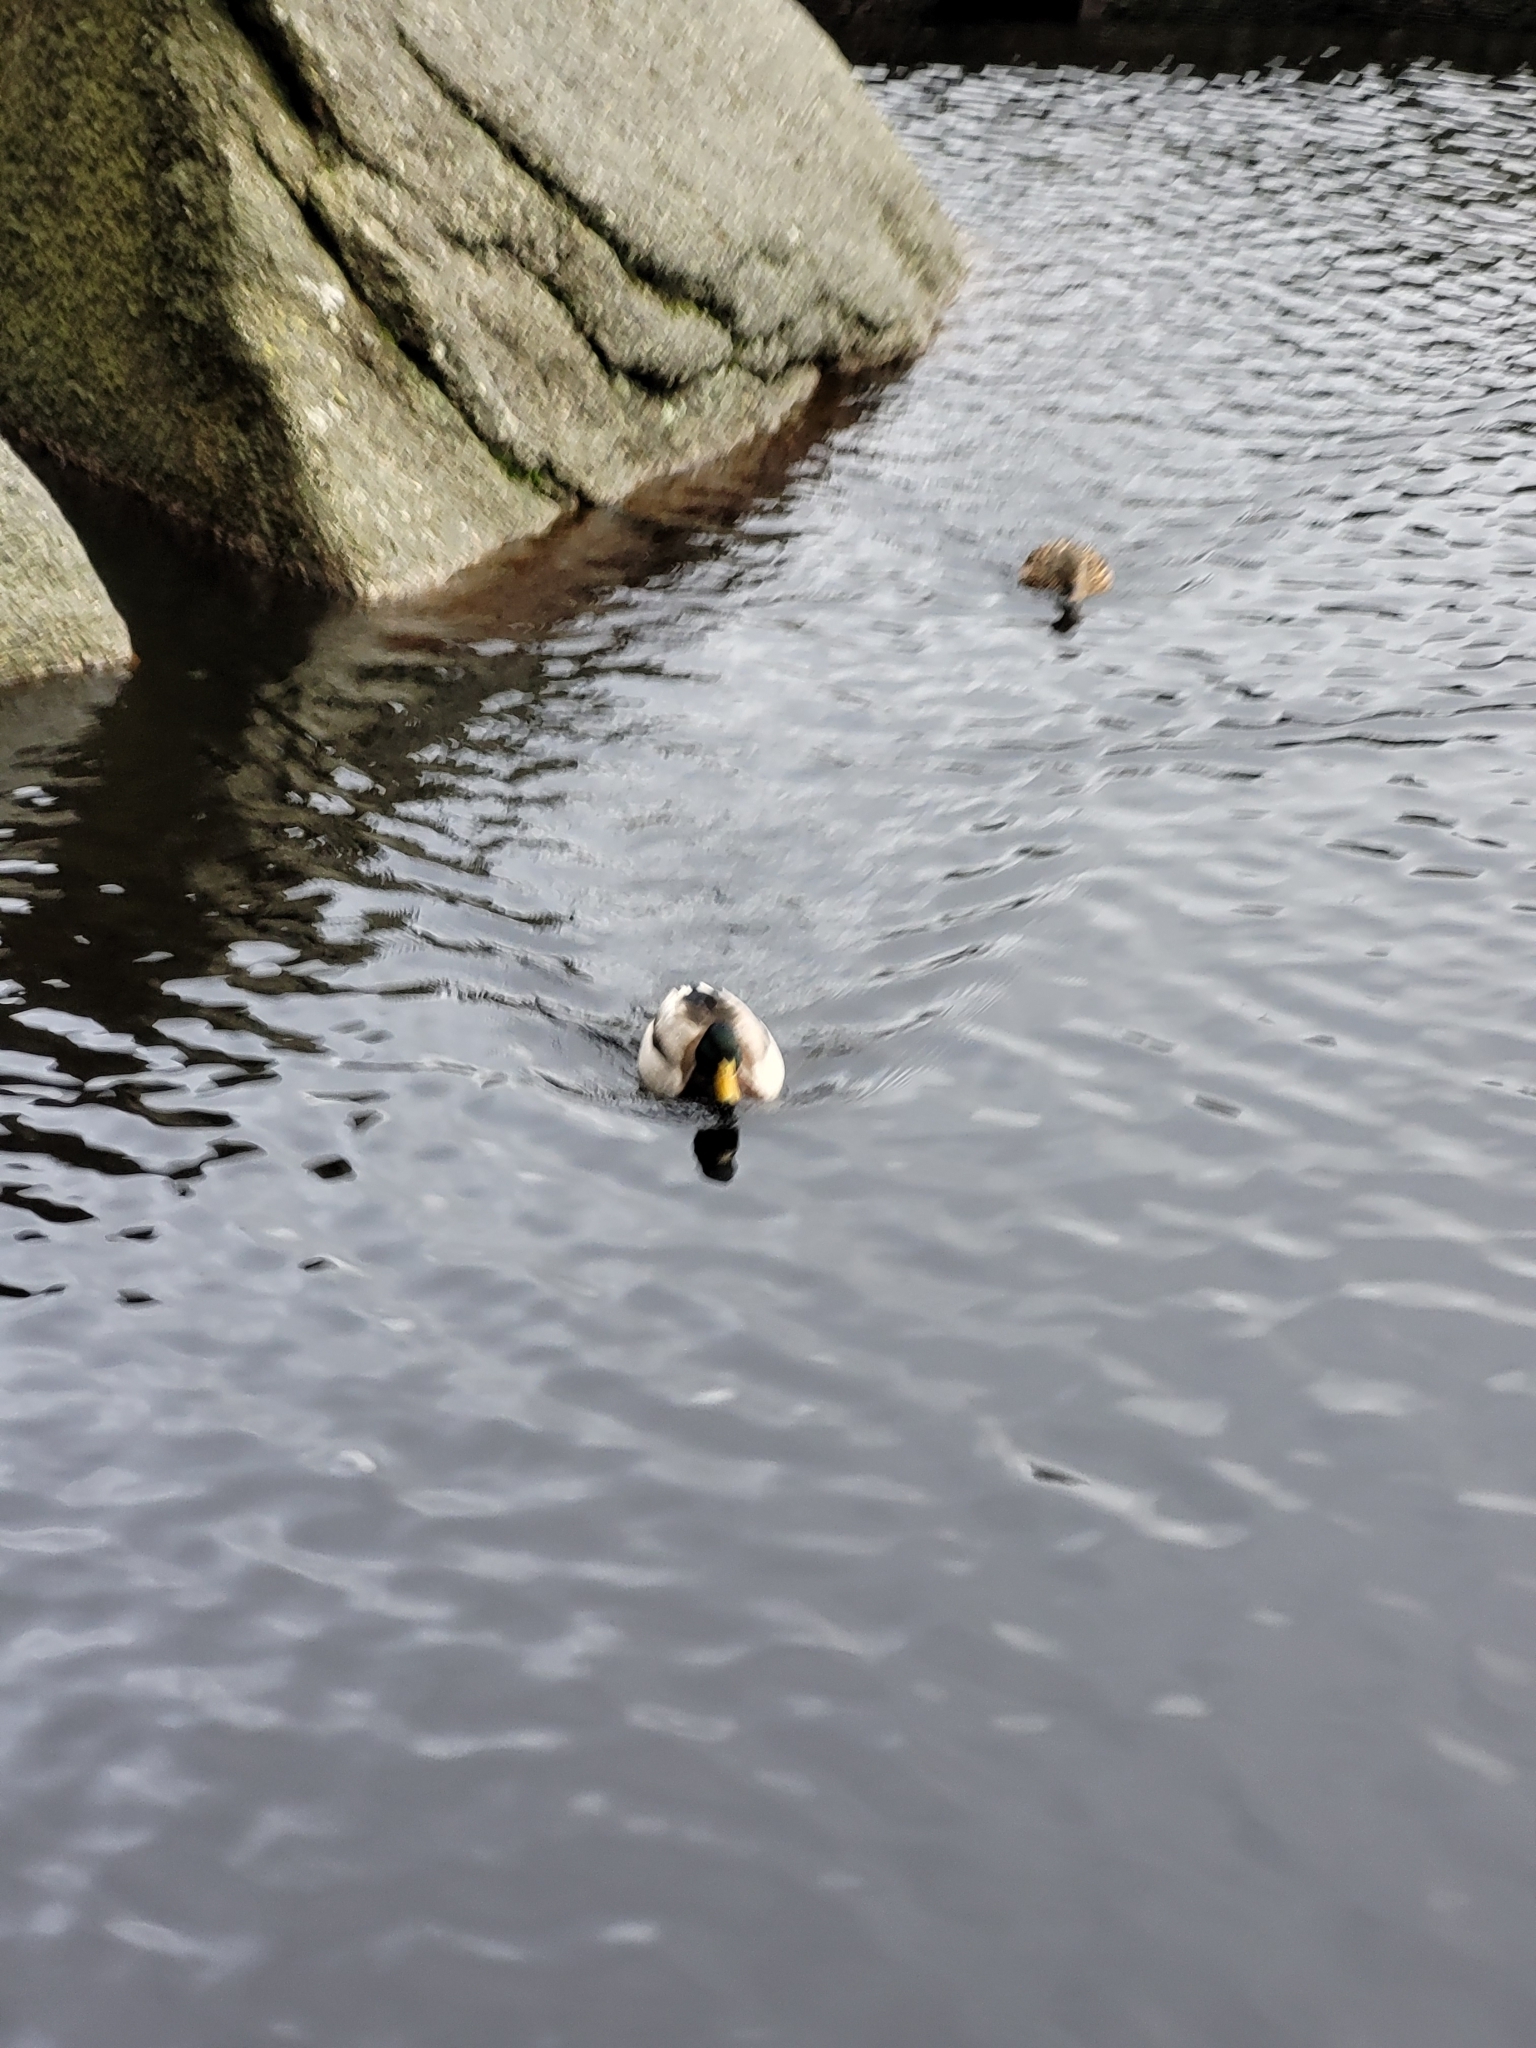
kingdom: Animalia
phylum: Chordata
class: Aves
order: Anseriformes
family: Anatidae
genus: Anas
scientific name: Anas platyrhynchos
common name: Mallard
